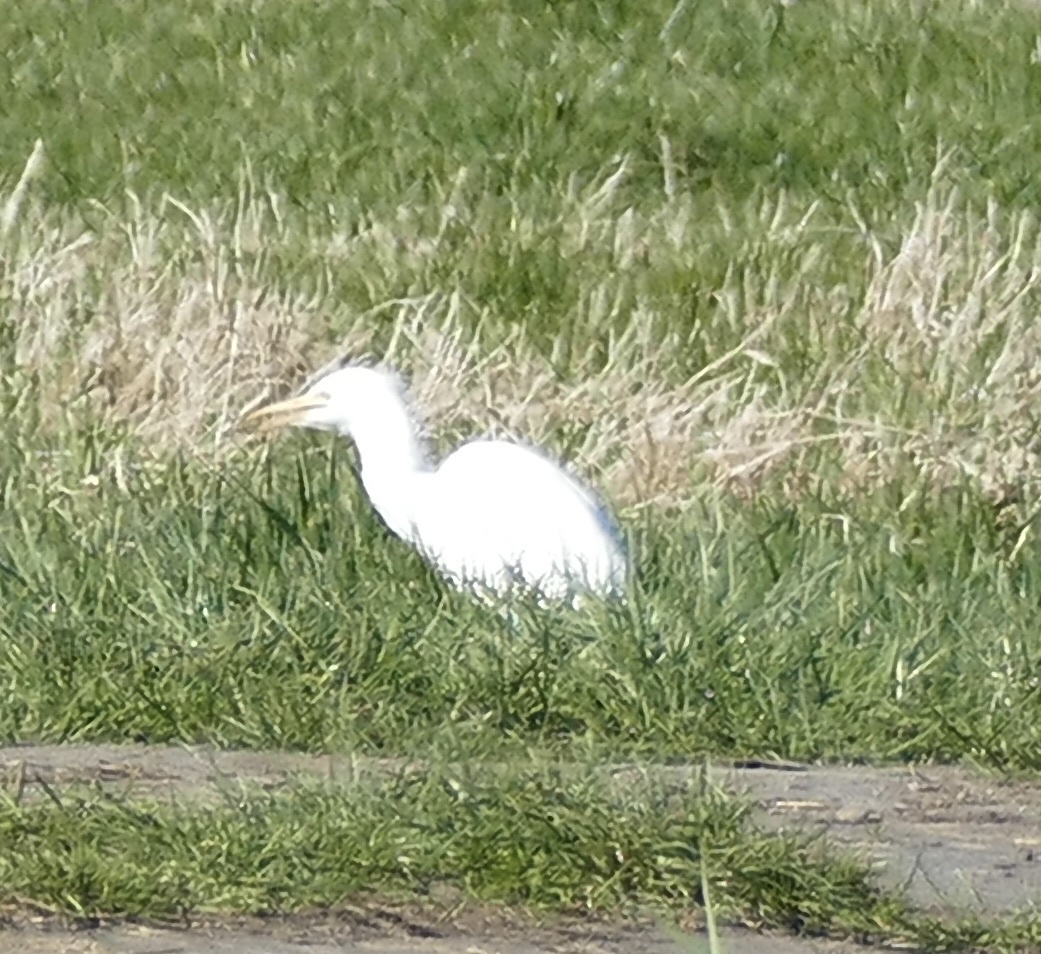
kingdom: Animalia
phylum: Chordata
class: Aves
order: Pelecaniformes
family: Ardeidae
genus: Bubulcus
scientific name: Bubulcus ibis
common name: Cattle egret
